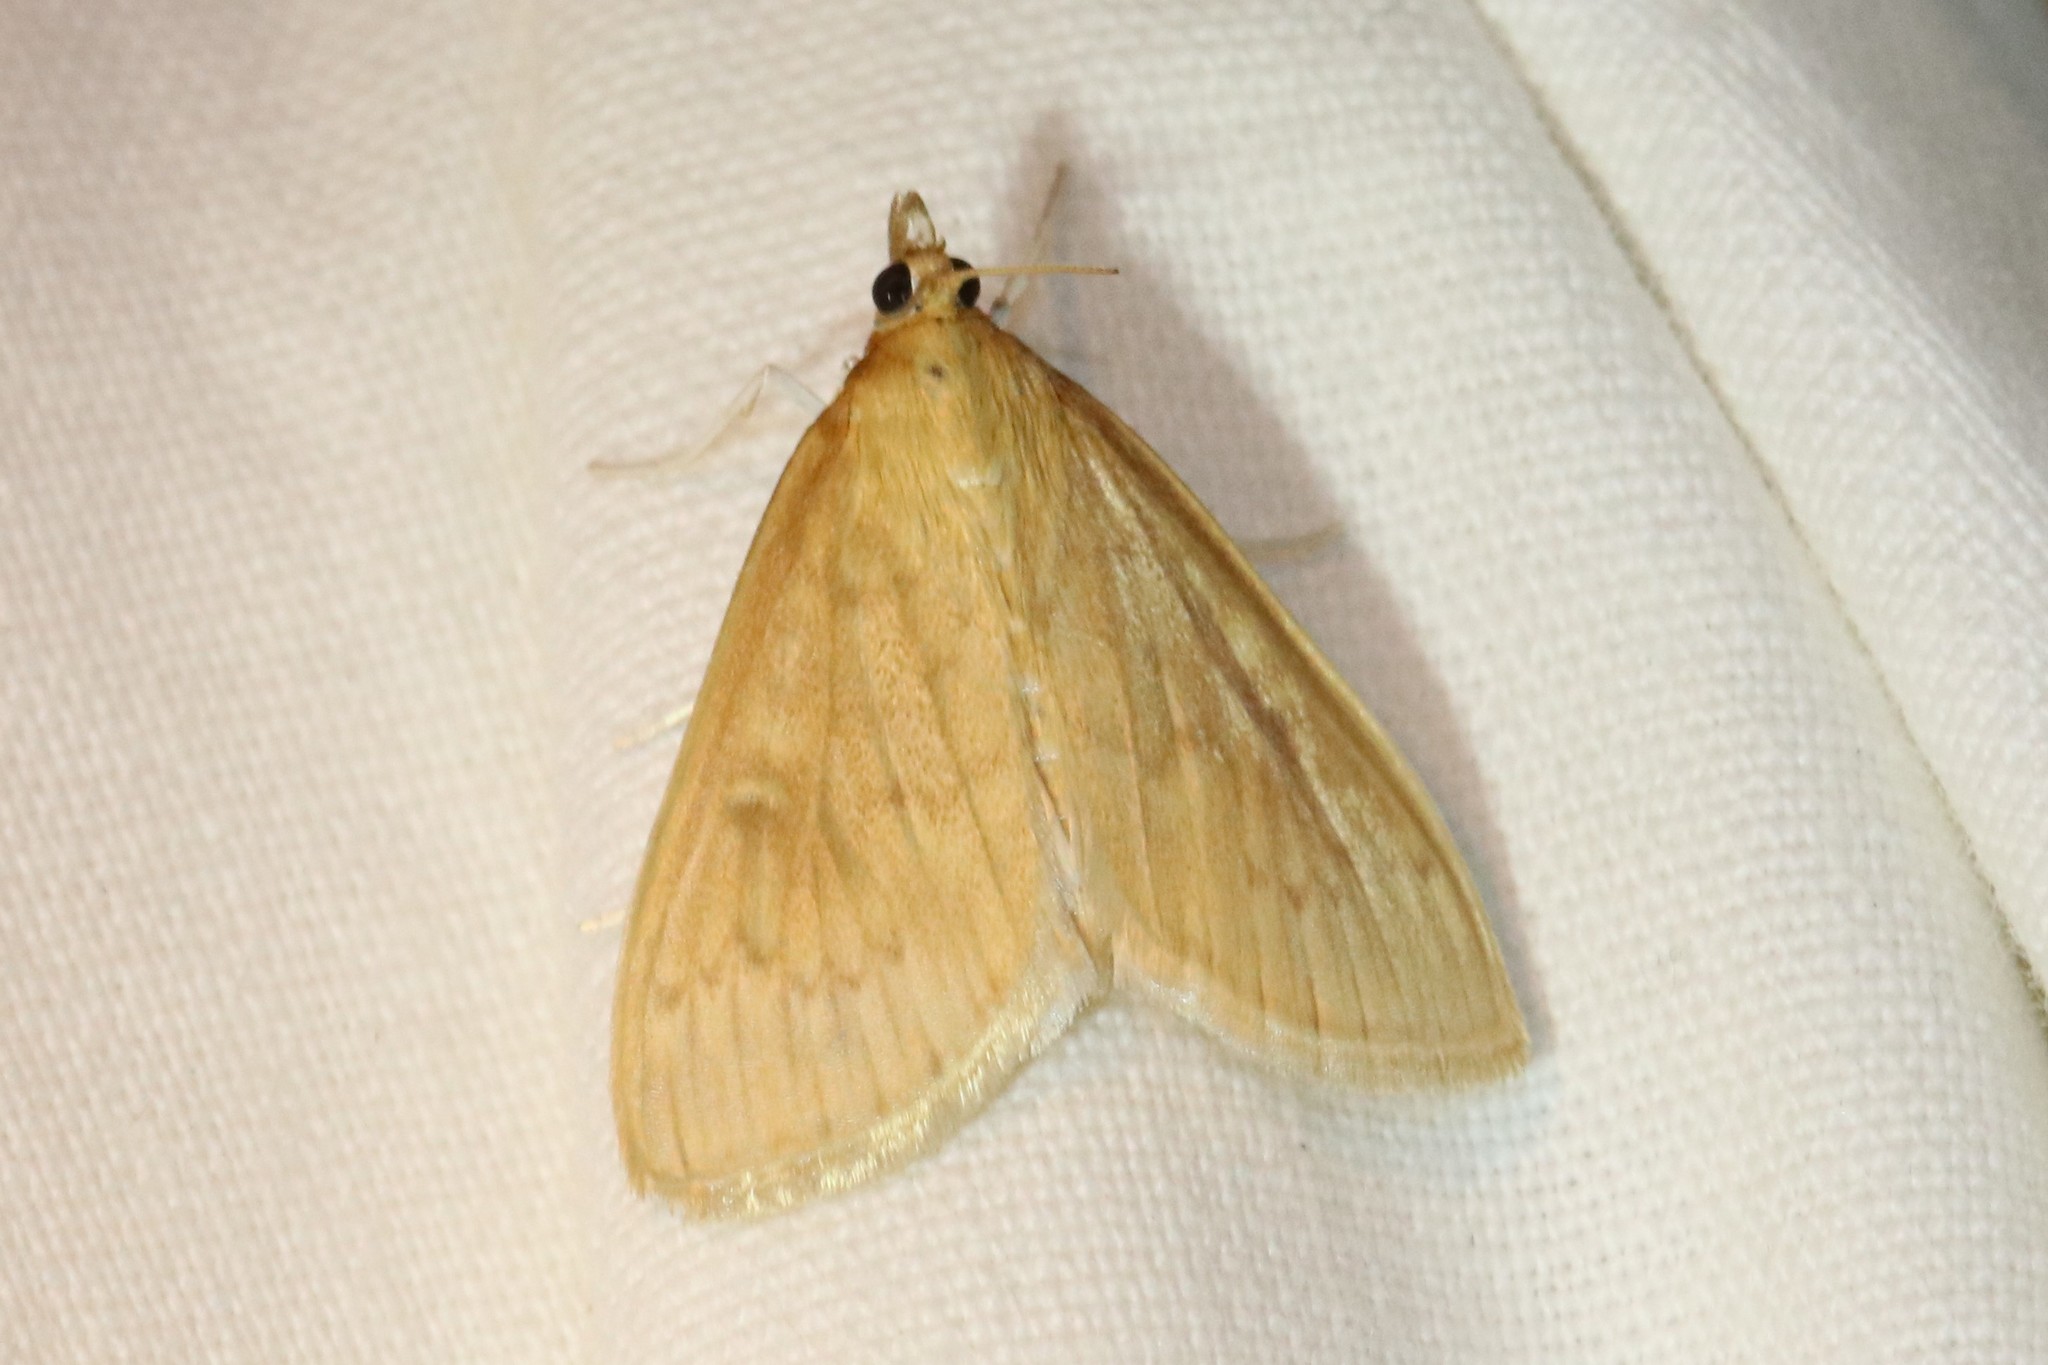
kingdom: Animalia
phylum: Arthropoda
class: Insecta
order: Lepidoptera
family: Crambidae
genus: Anania
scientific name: Anania Framinghamia helvalis
